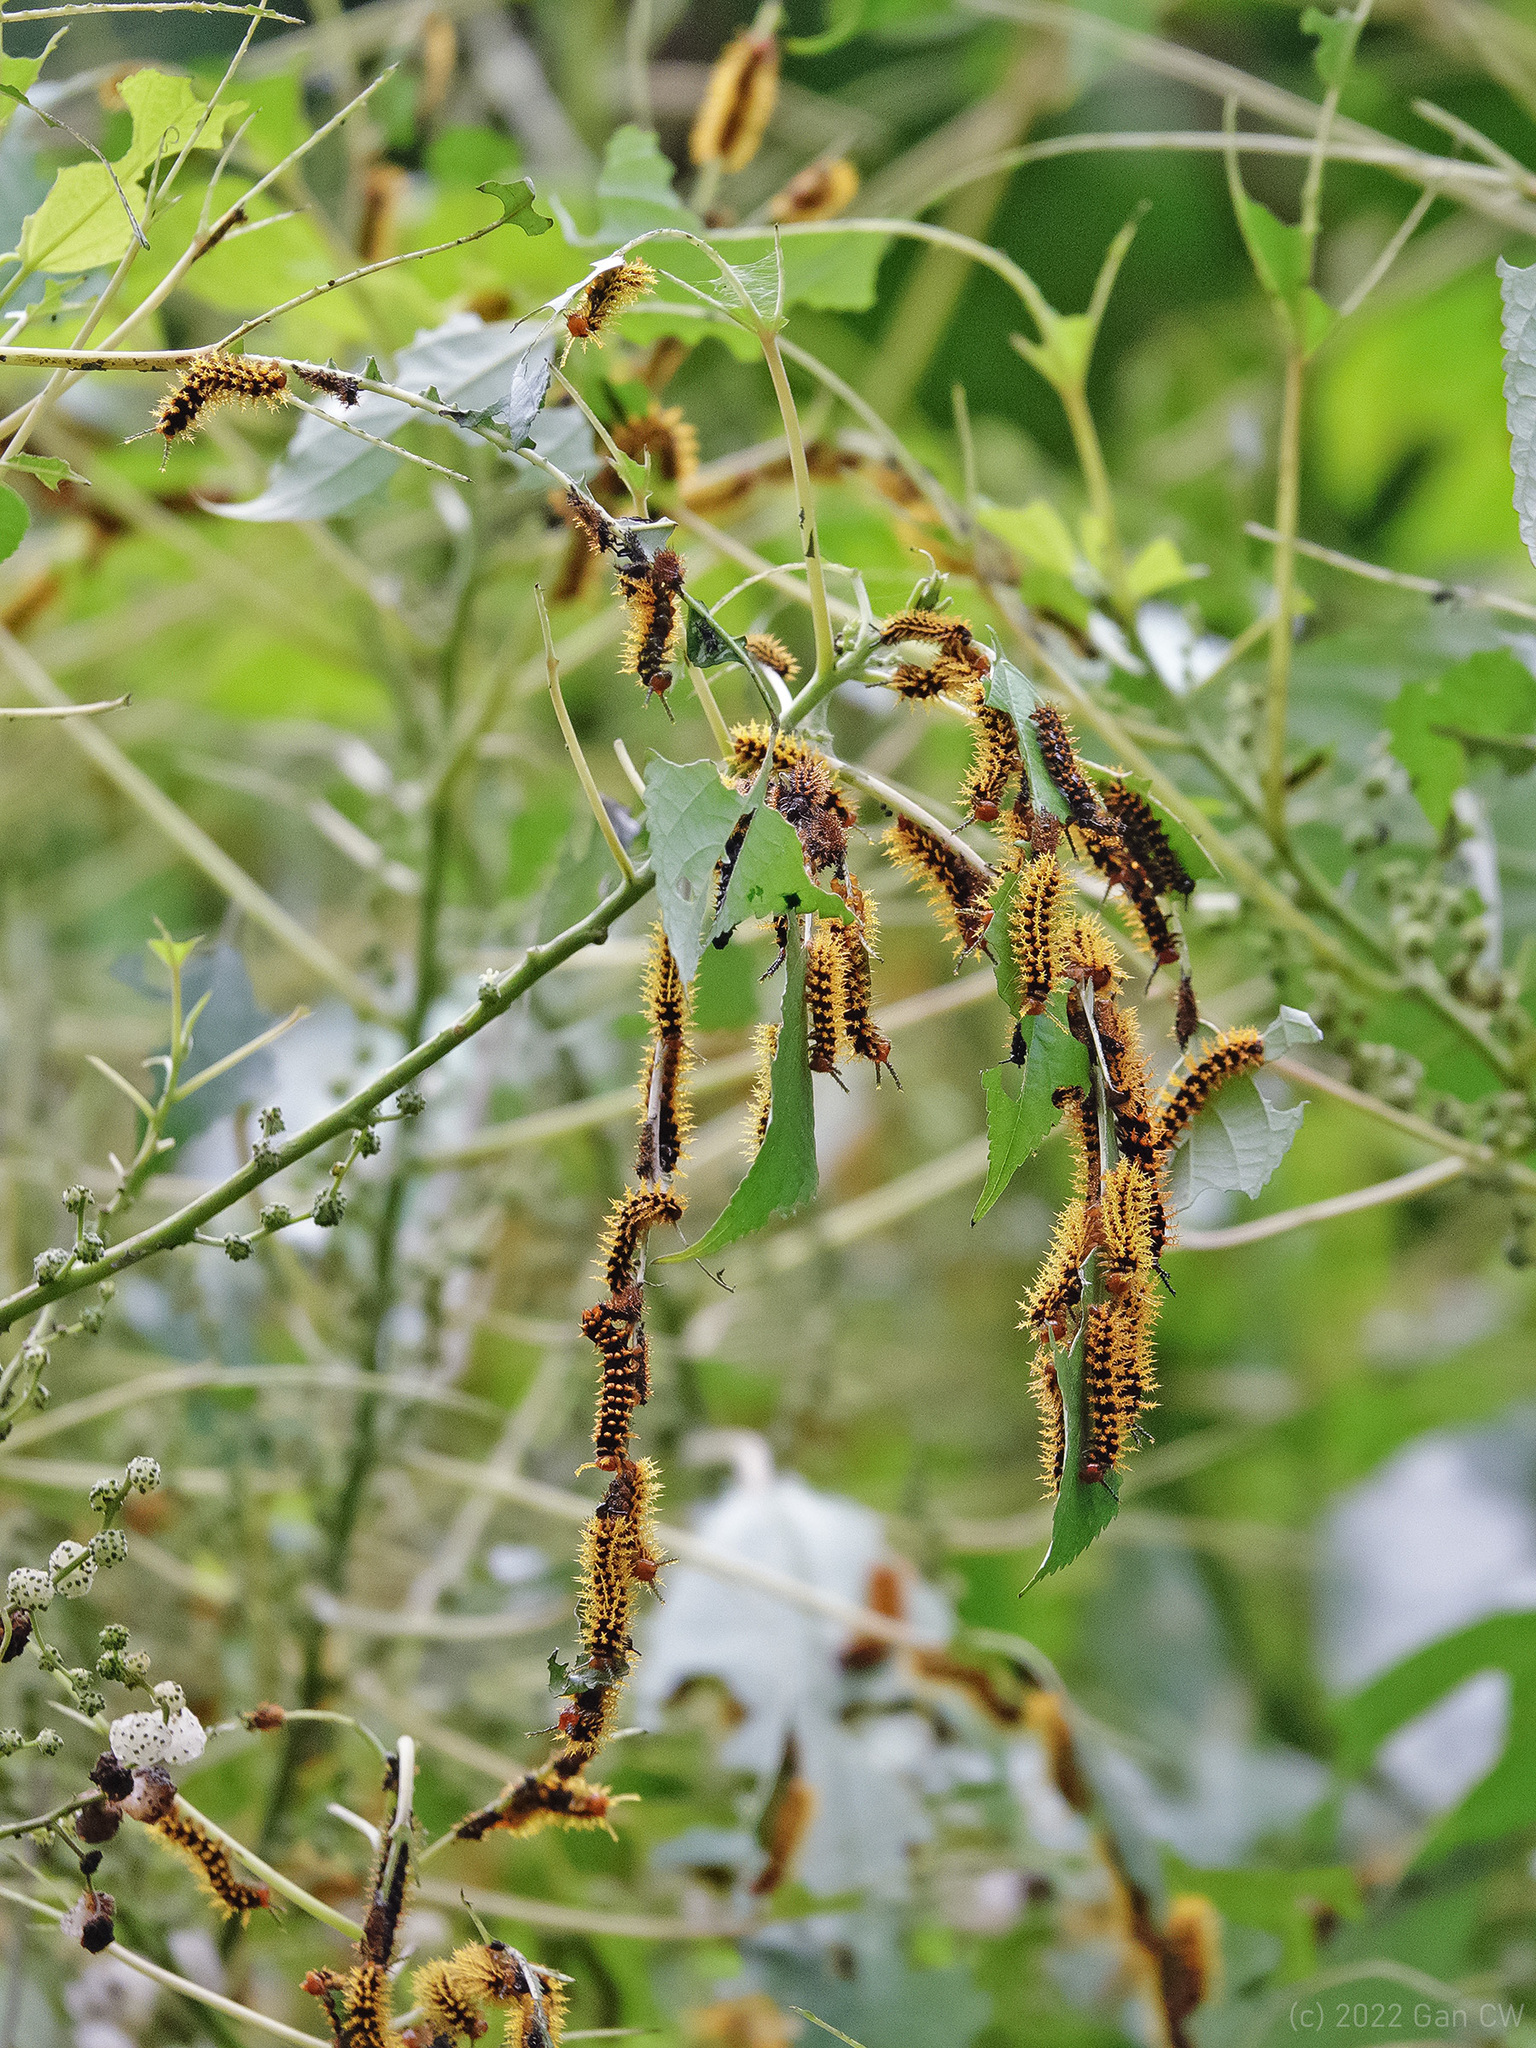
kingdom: Animalia
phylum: Arthropoda
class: Insecta
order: Lepidoptera
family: Nymphalidae
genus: Hypolimnas
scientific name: Hypolimnas anomala
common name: Malayan eggfly
